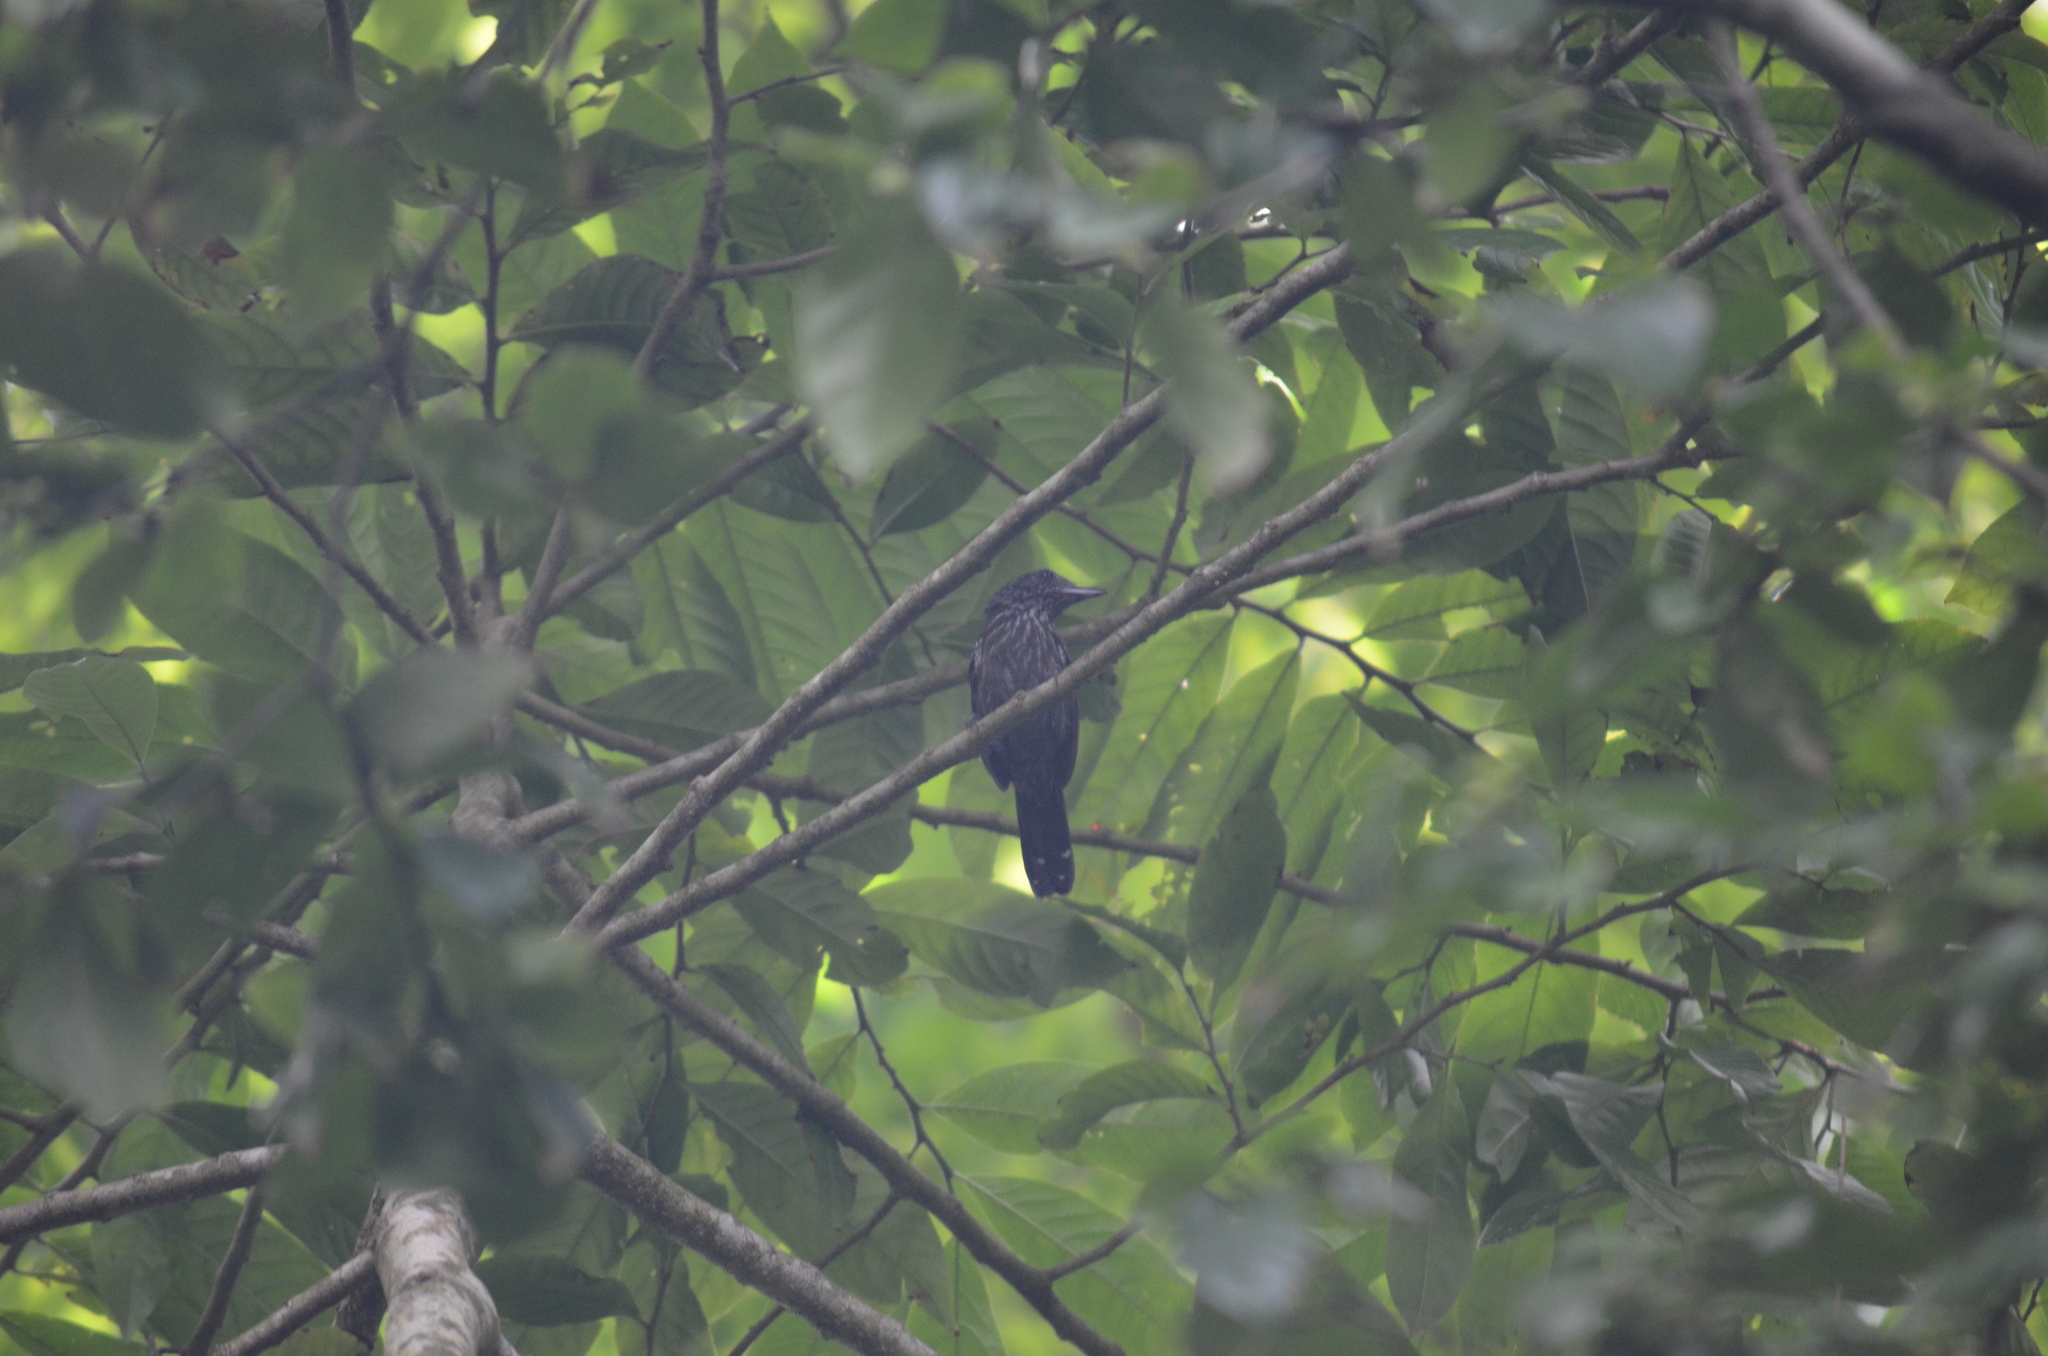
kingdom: Animalia
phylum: Chordata
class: Aves
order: Passeriformes
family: Thamnophilidae
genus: Thamnophilus
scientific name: Thamnophilus bridgesi
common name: Black-hooded antshrike
